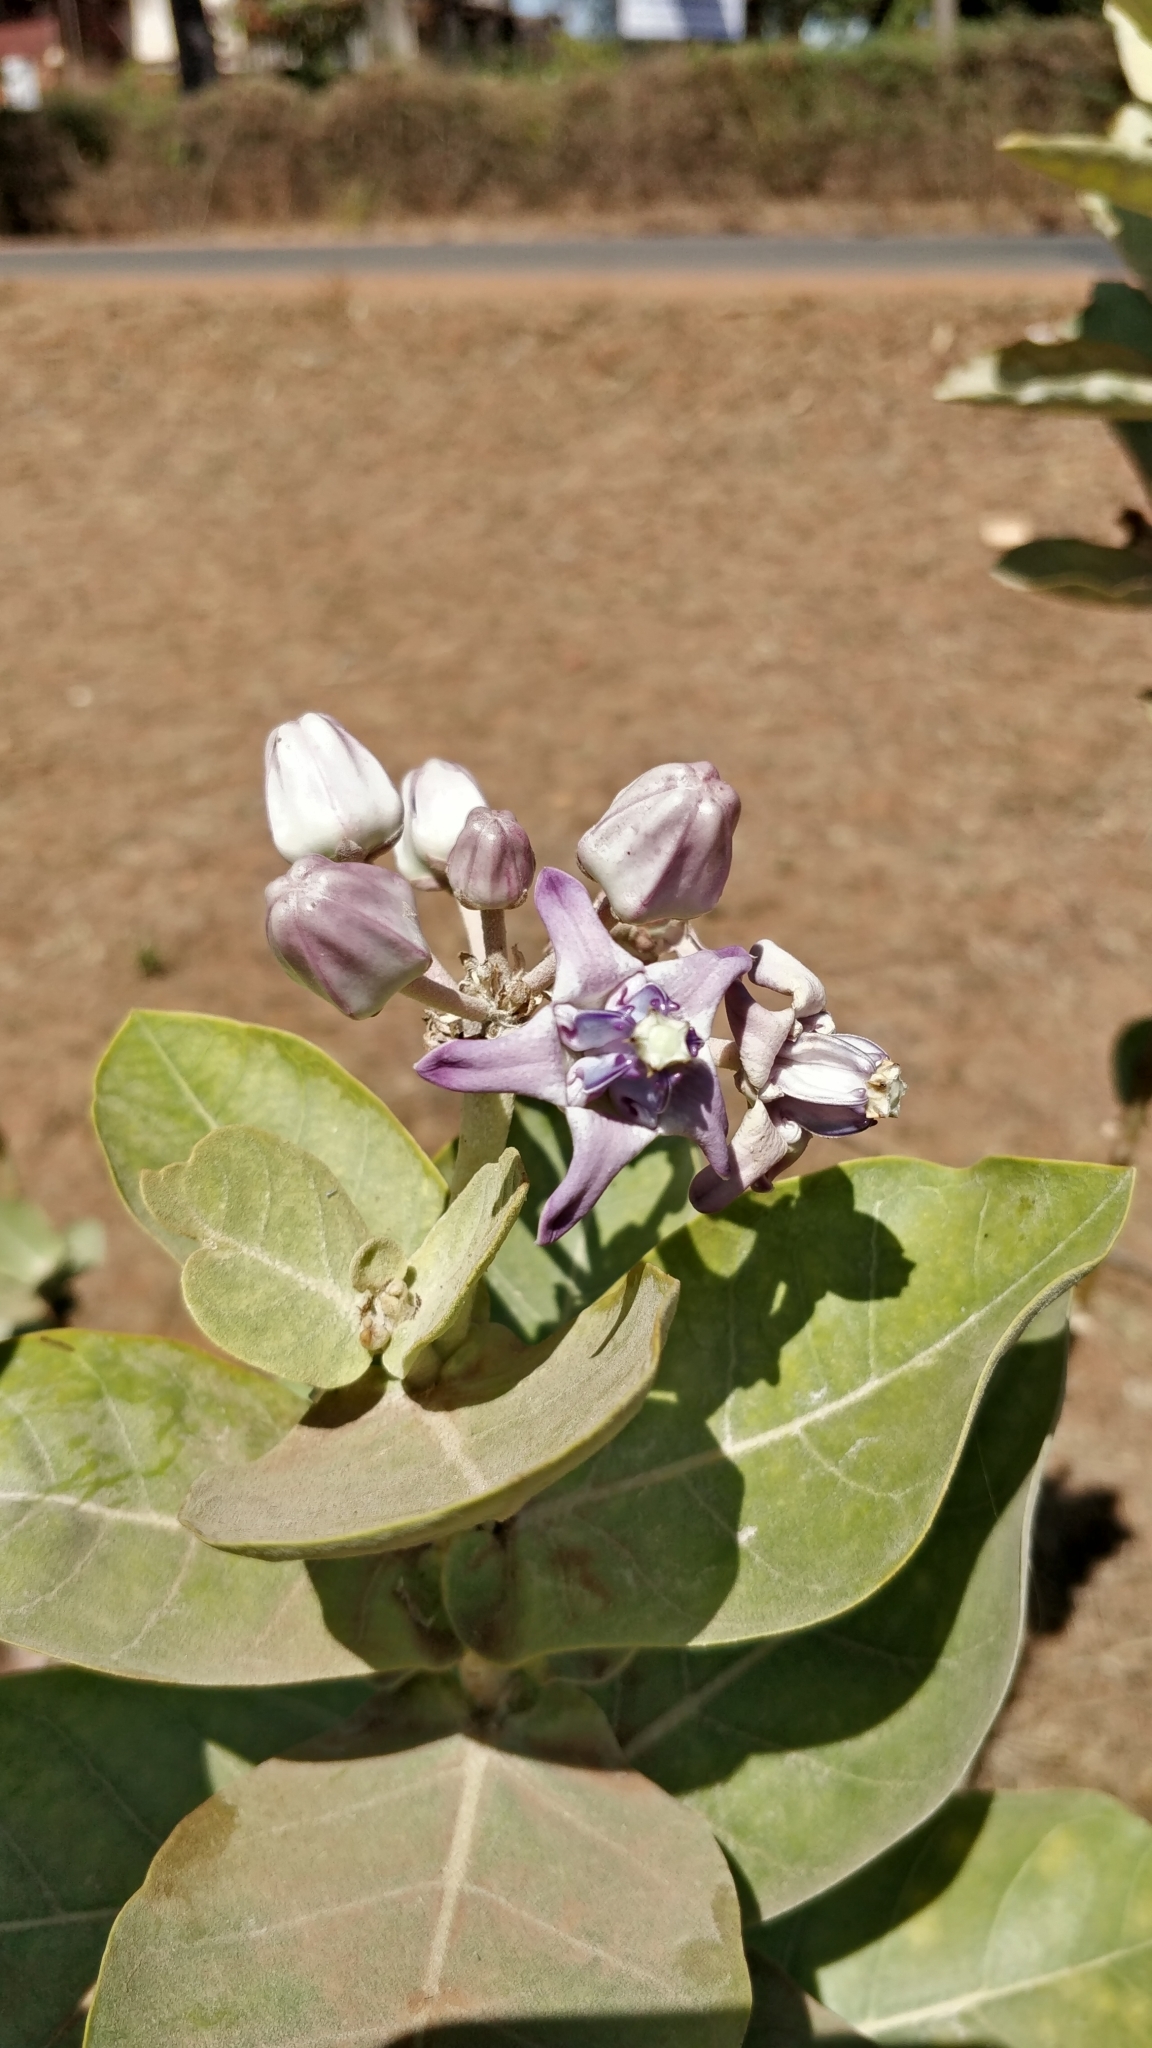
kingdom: Plantae
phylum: Tracheophyta
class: Magnoliopsida
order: Gentianales
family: Apocynaceae
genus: Calotropis
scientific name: Calotropis gigantea
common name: Crown flower
